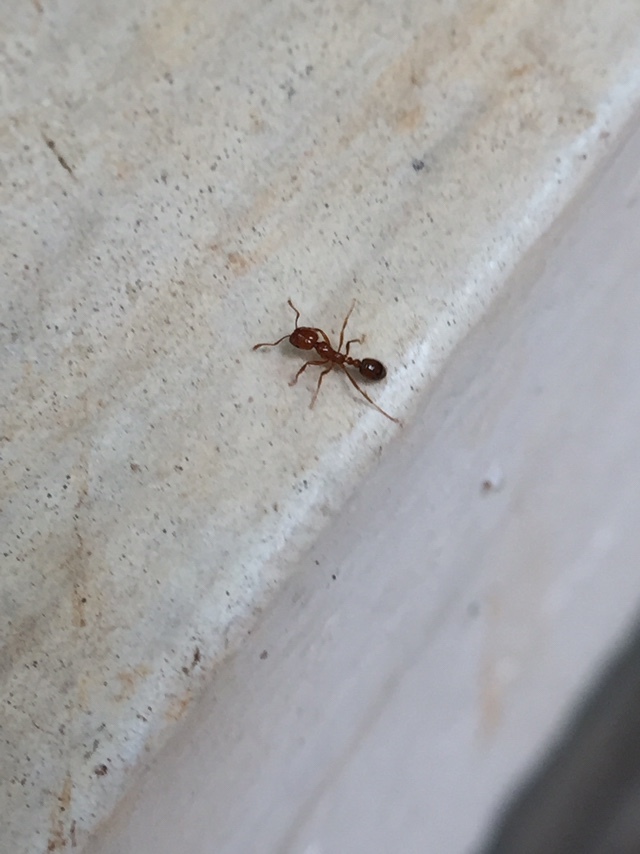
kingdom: Animalia
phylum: Arthropoda
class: Insecta
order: Hymenoptera
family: Formicidae
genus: Solenopsis
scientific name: Solenopsis geminata
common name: Tropical fire ant
